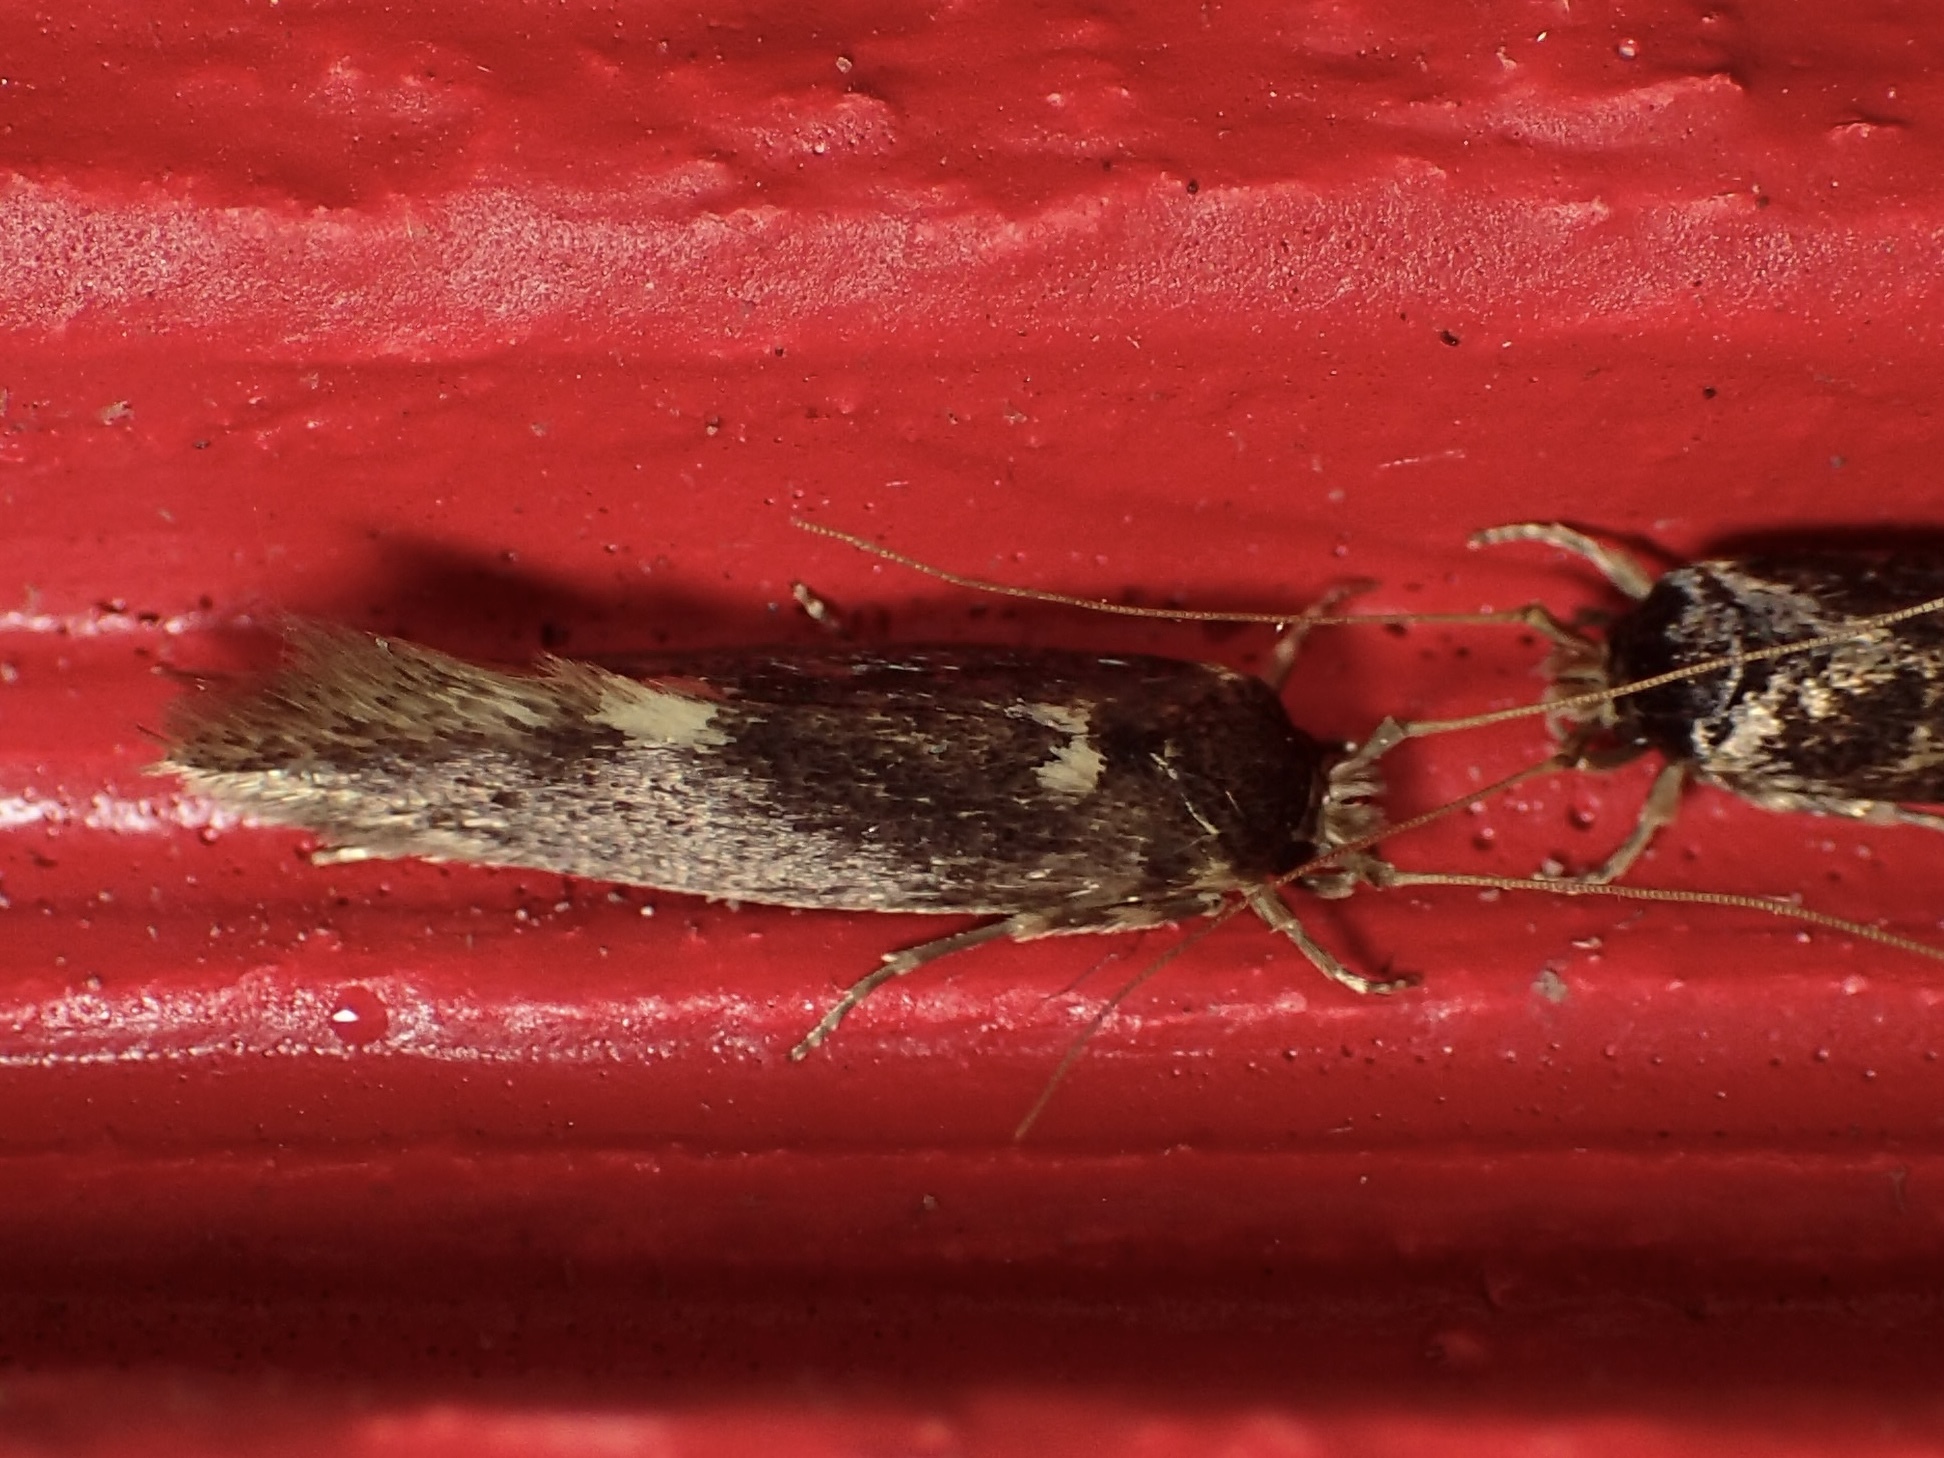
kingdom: Animalia
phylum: Arthropoda
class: Insecta
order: Lepidoptera
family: Tineidae
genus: Opogona
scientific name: Opogona omoscopa
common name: Moth
